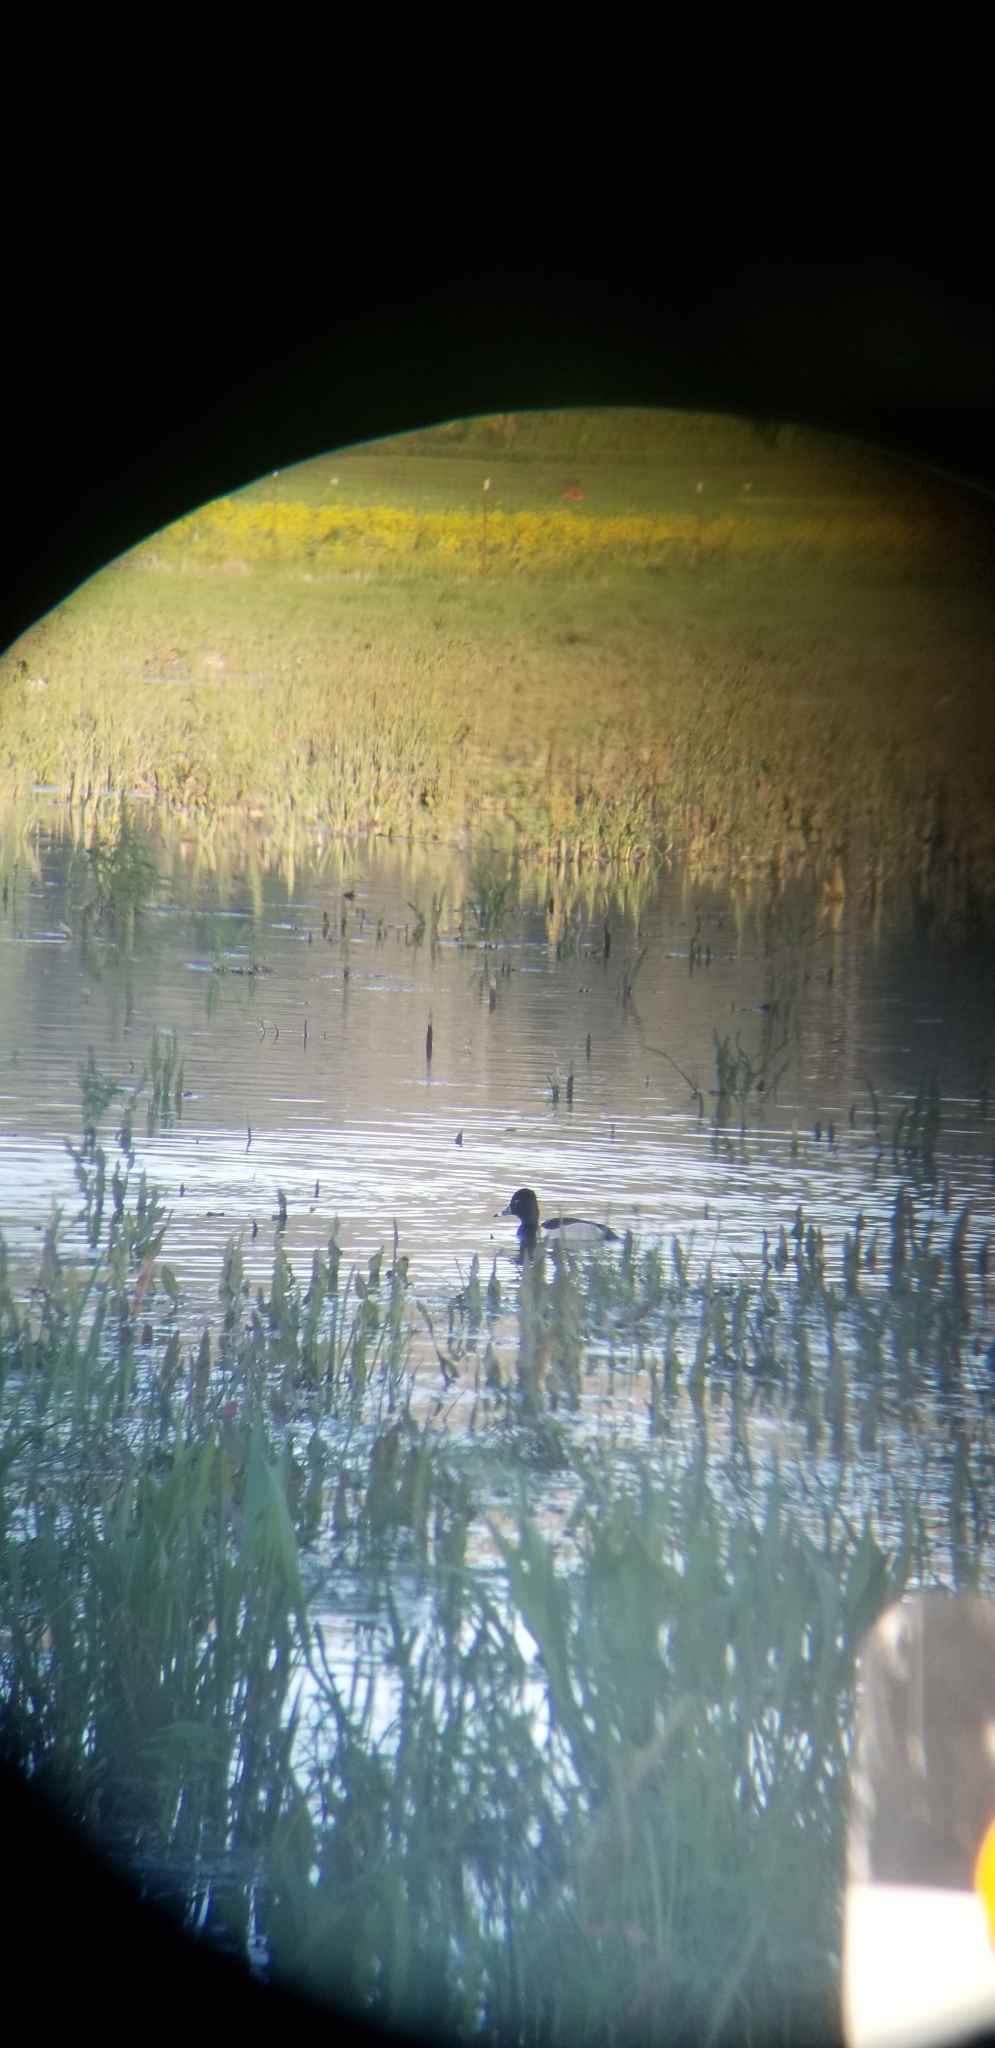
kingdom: Animalia
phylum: Chordata
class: Aves
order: Anseriformes
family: Anatidae
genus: Aythya
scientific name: Aythya collaris
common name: Ring-necked duck
